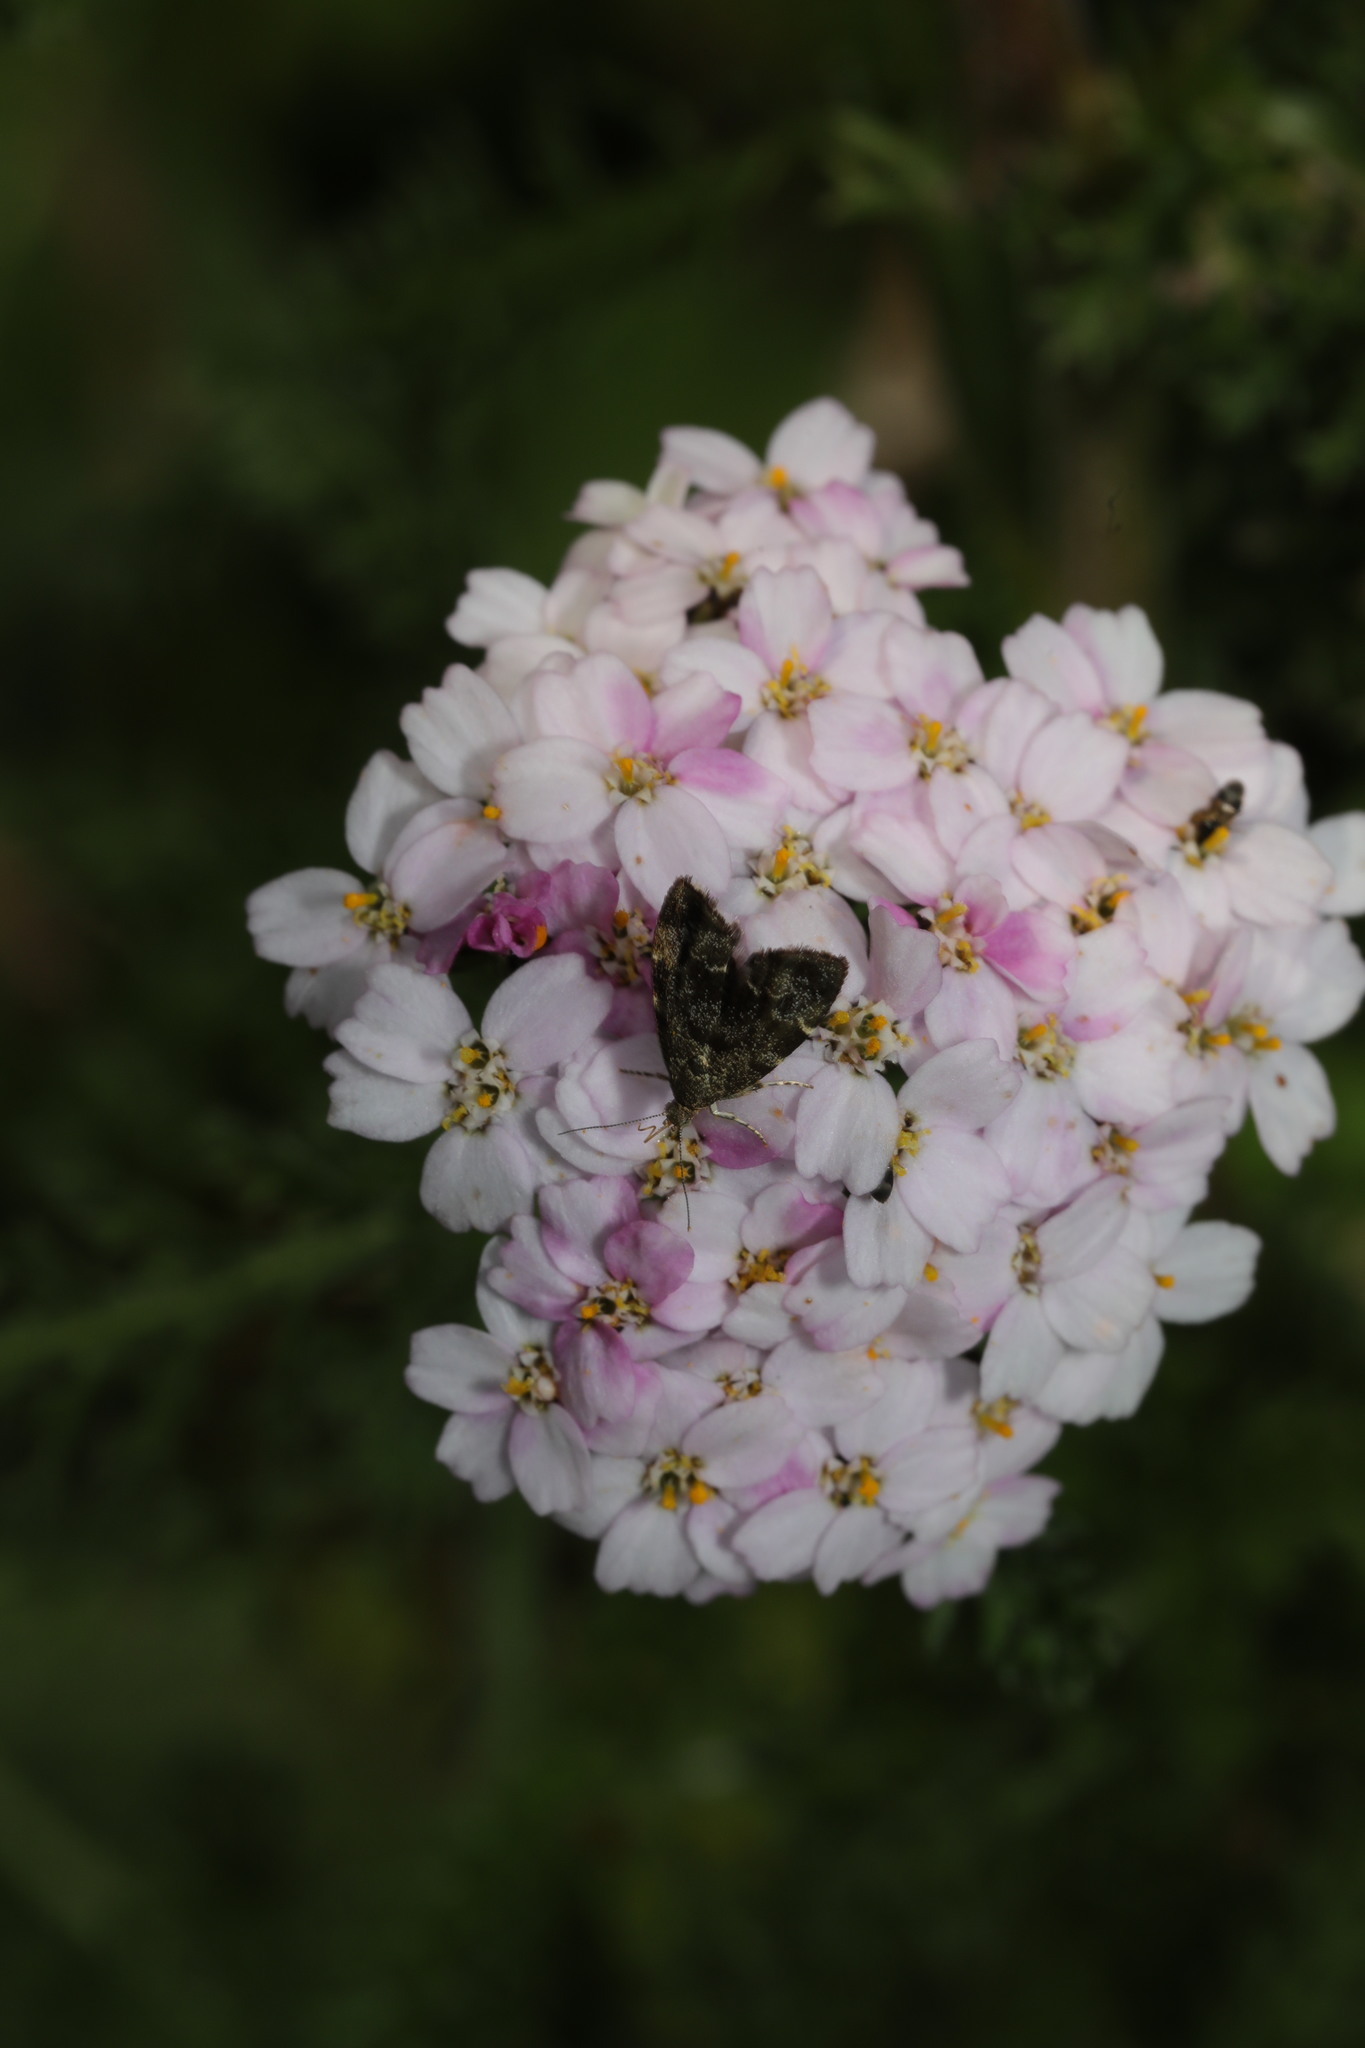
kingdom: Animalia
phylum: Arthropoda
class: Insecta
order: Lepidoptera
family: Choreutidae
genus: Anthophila
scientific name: Anthophila fabriciana
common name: Nettle-tap
